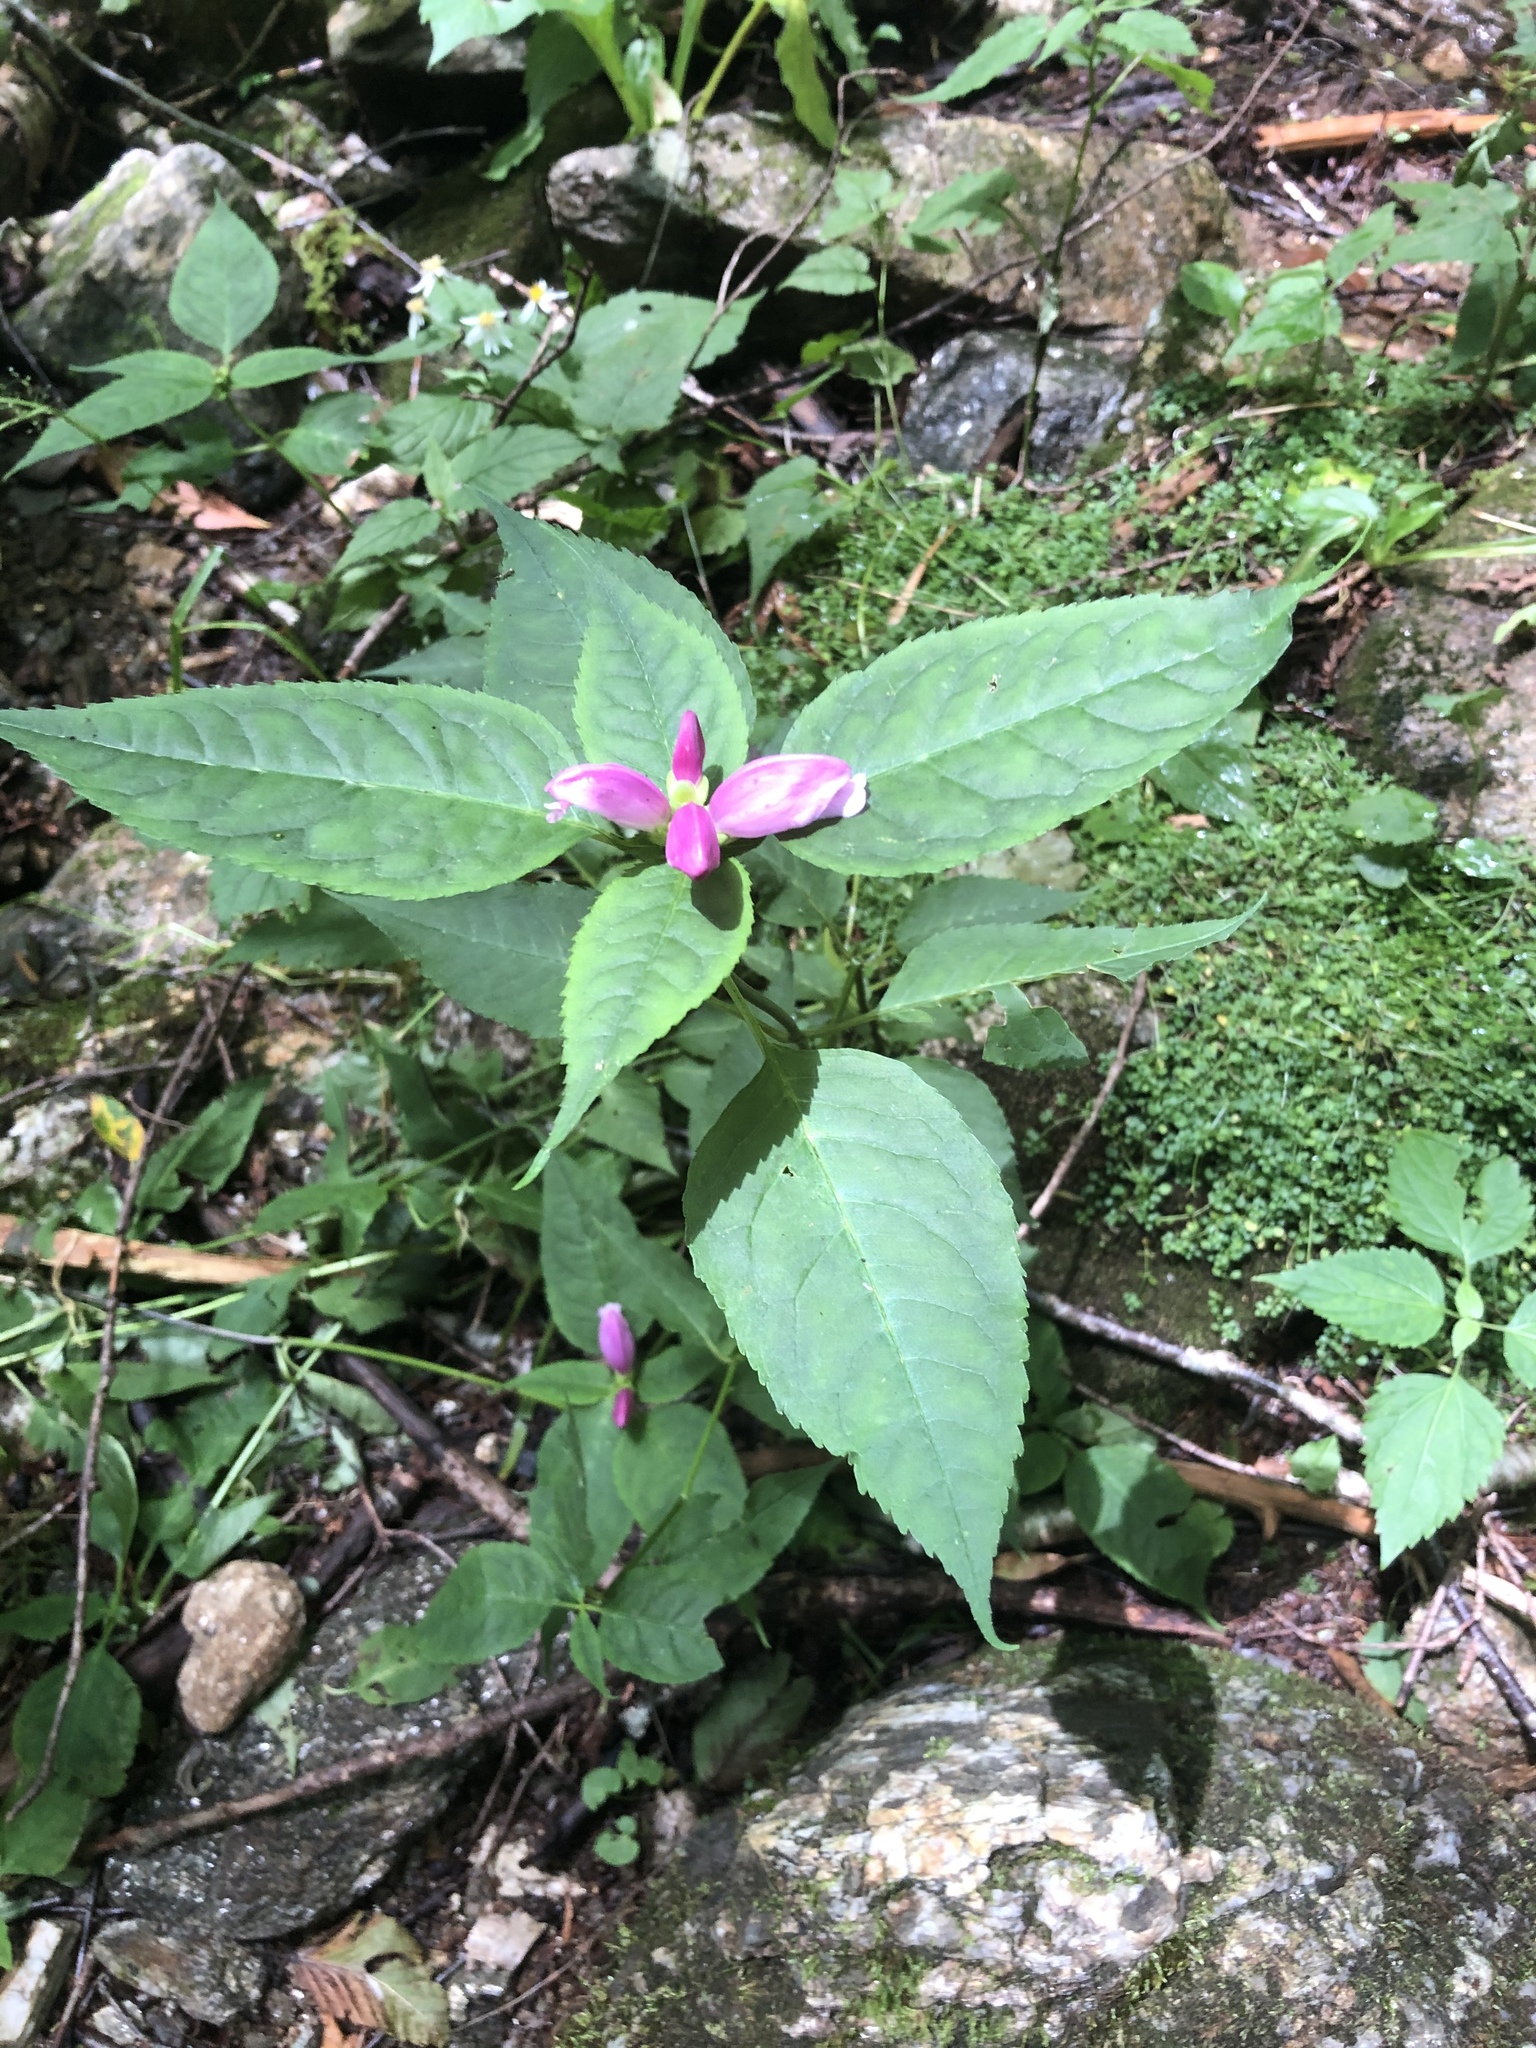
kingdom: Plantae
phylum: Tracheophyta
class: Magnoliopsida
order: Lamiales
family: Plantaginaceae
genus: Chelone
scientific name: Chelone lyonii
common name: Pink turtlehead
